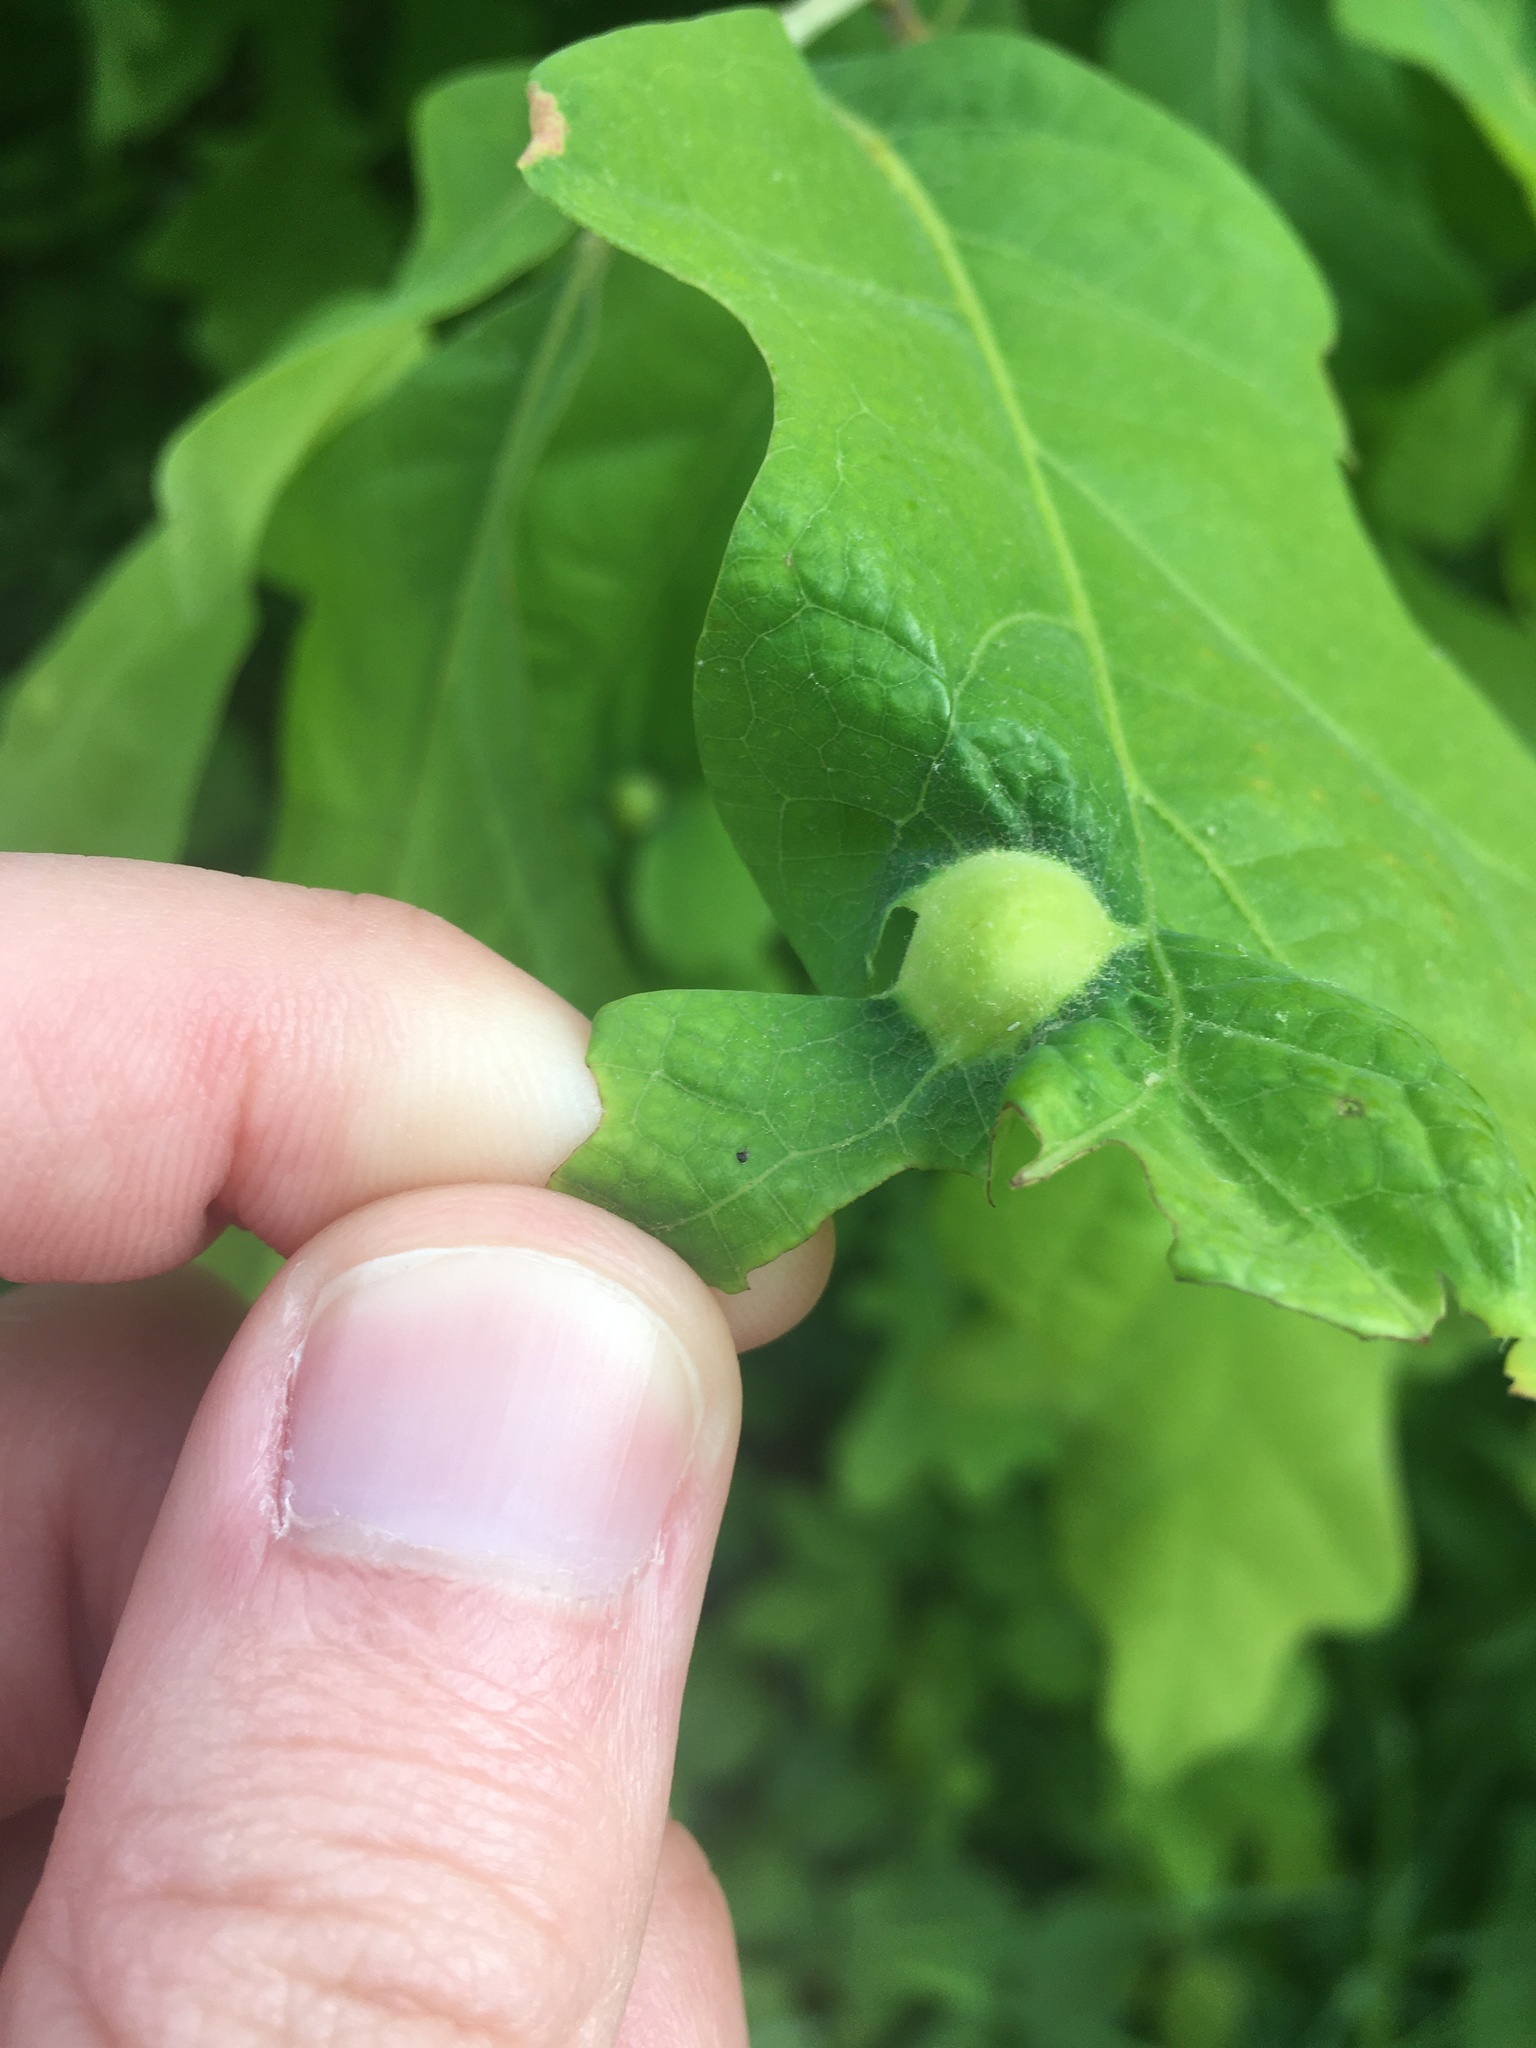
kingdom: Animalia
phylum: Arthropoda
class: Insecta
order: Hymenoptera
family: Cynipidae
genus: Callirhytis
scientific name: Callirhytis
